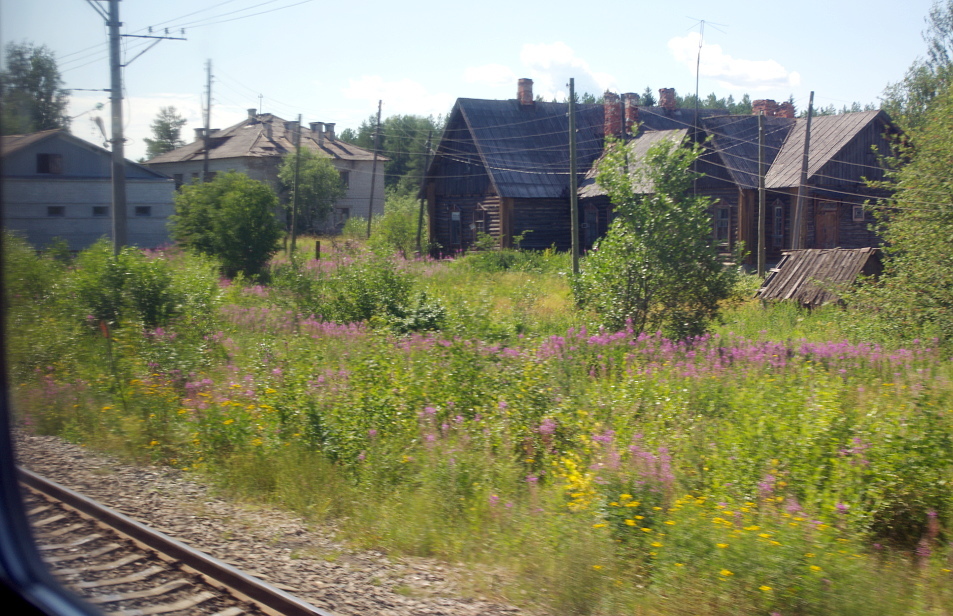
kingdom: Plantae
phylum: Tracheophyta
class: Magnoliopsida
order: Myrtales
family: Onagraceae
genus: Chamaenerion
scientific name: Chamaenerion angustifolium
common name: Fireweed
